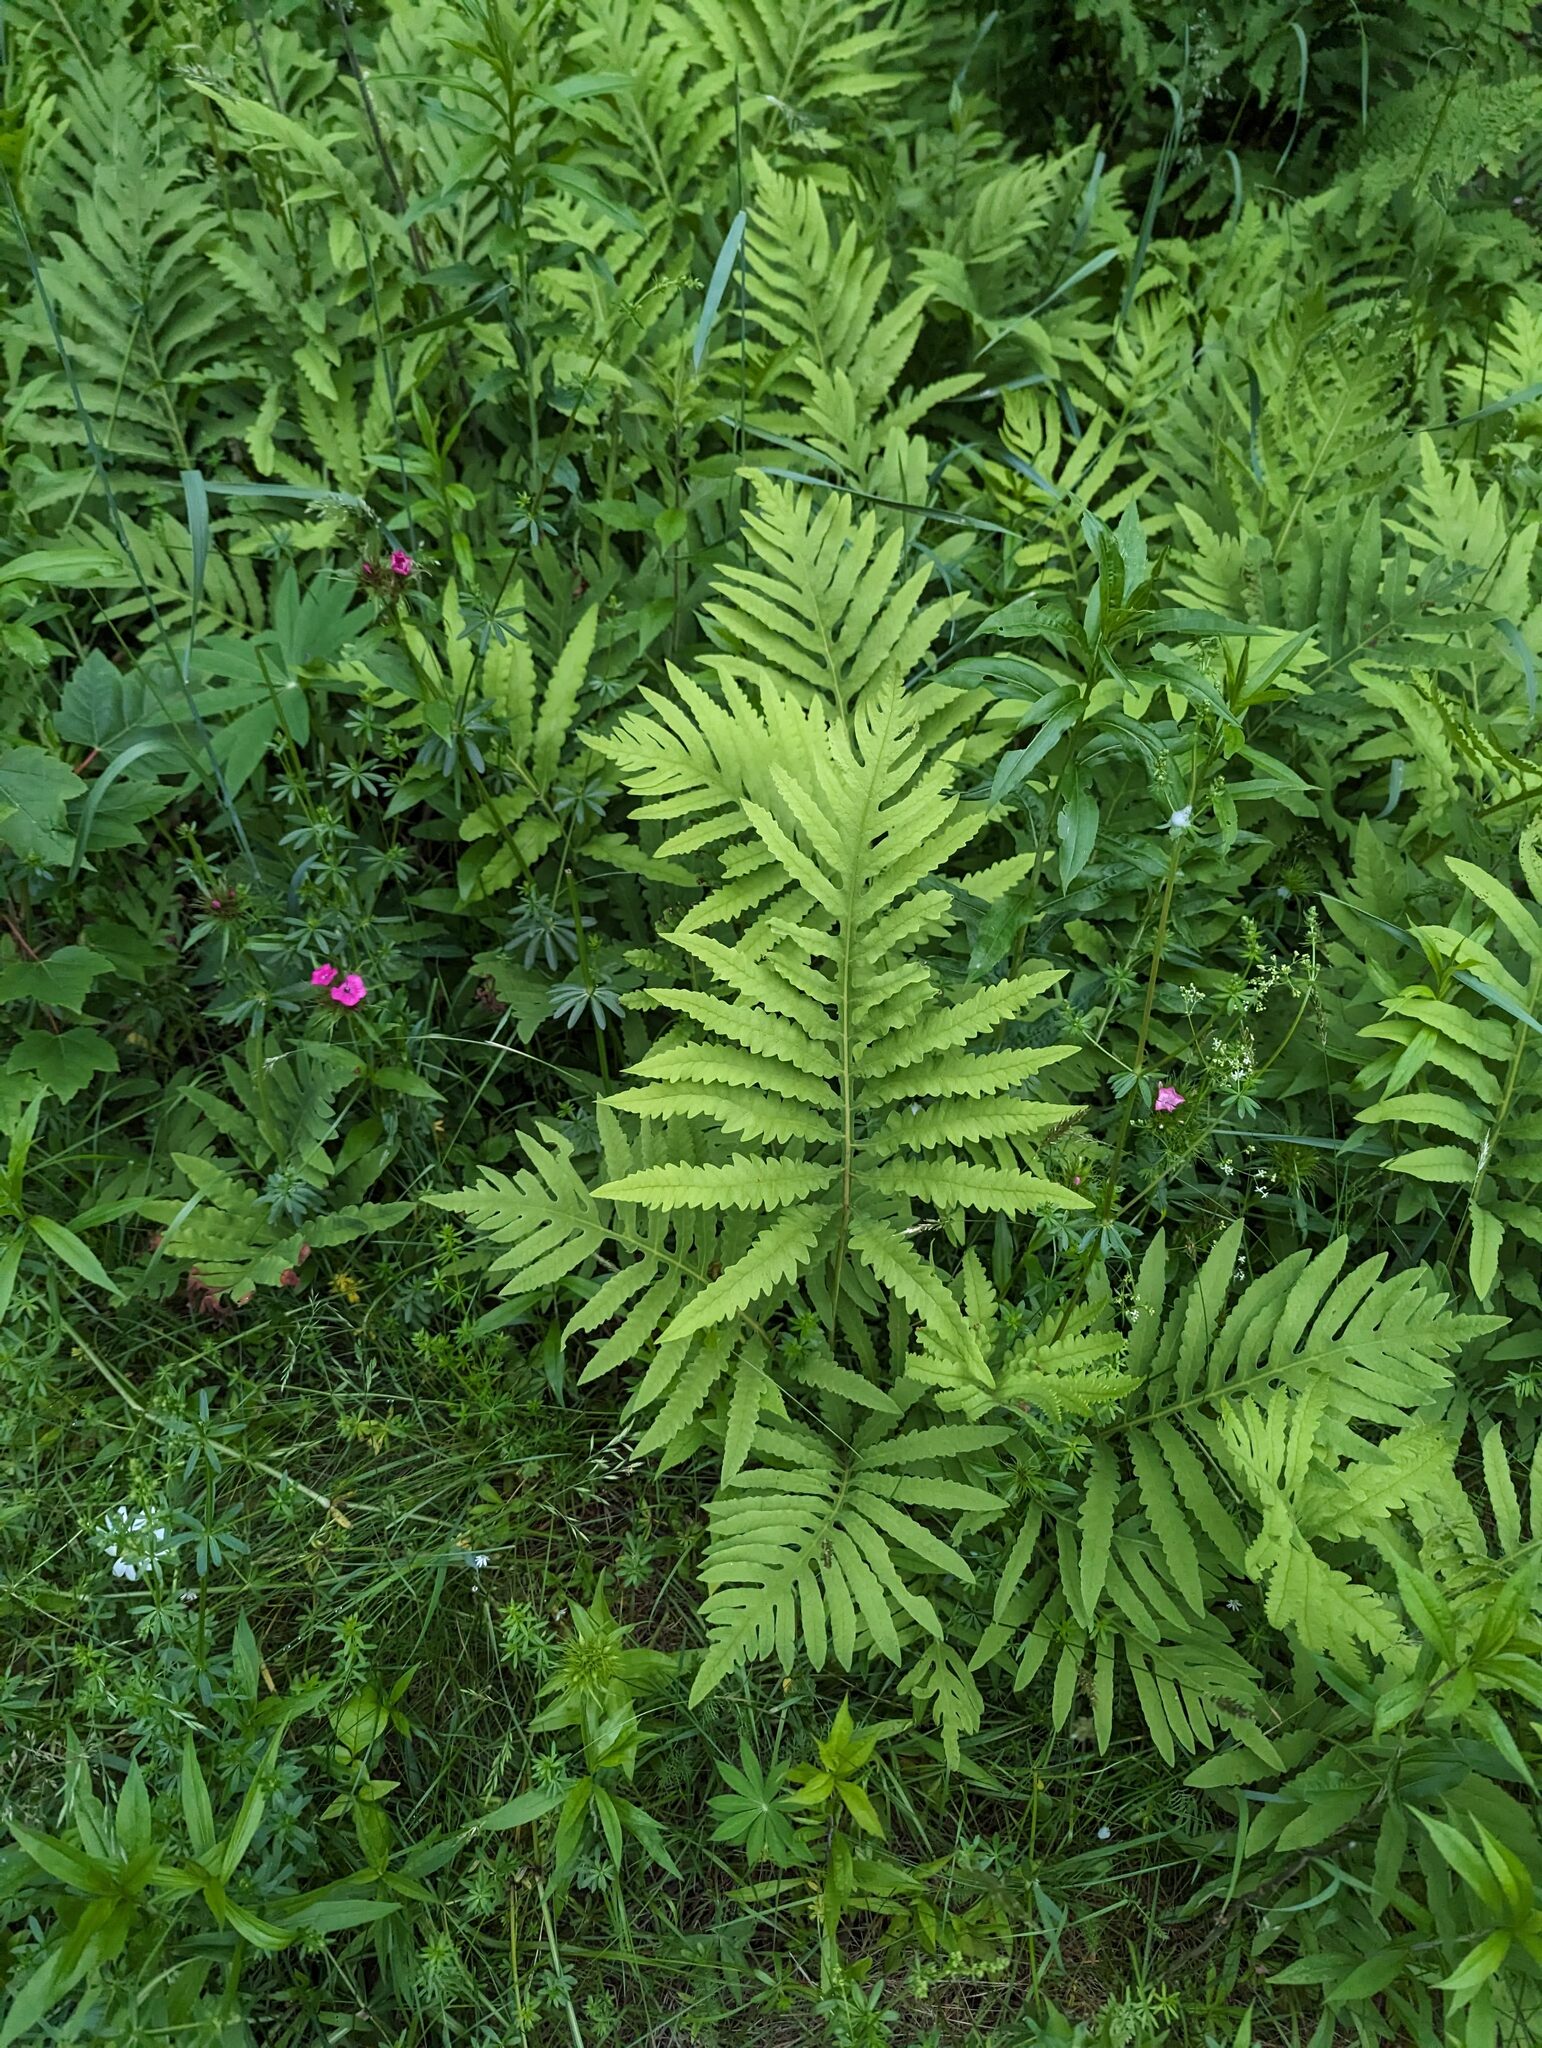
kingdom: Plantae
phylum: Tracheophyta
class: Polypodiopsida
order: Polypodiales
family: Onocleaceae
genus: Onoclea
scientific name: Onoclea sensibilis
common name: Sensitive fern
